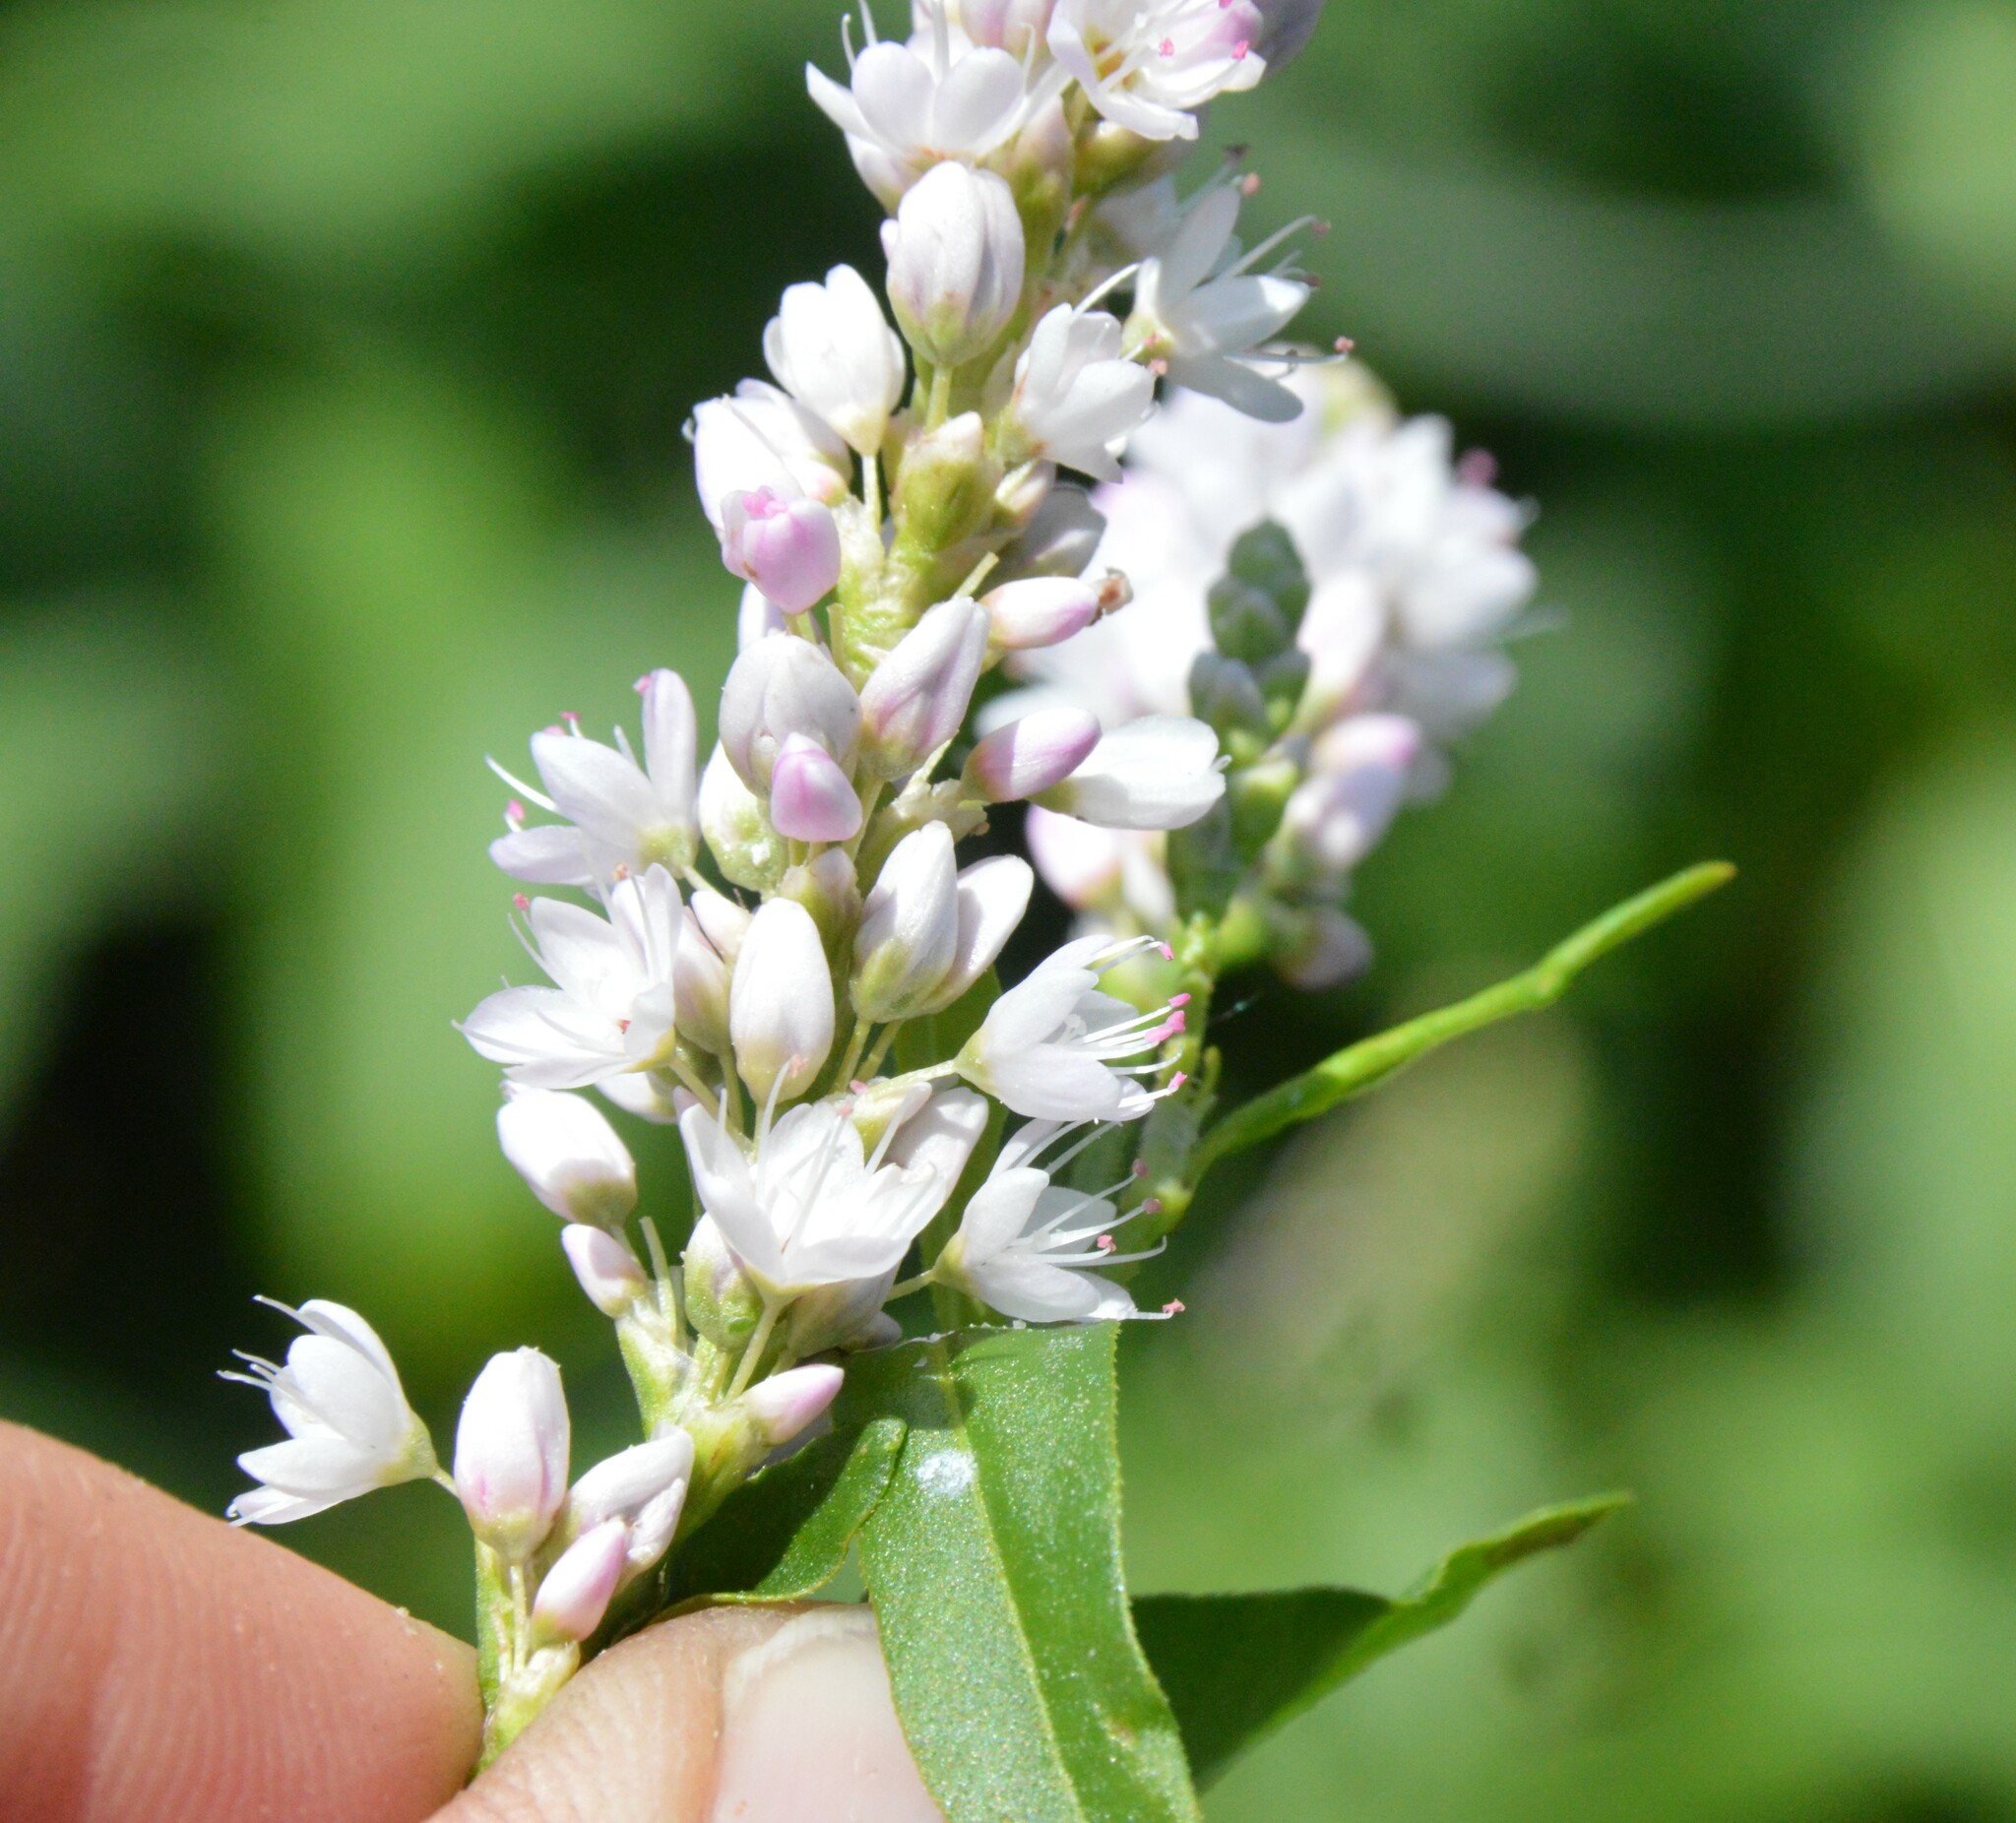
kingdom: Plantae
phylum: Tracheophyta
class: Magnoliopsida
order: Caryophyllales
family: Polygonaceae
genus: Persicaria
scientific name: Persicaria bicornis
